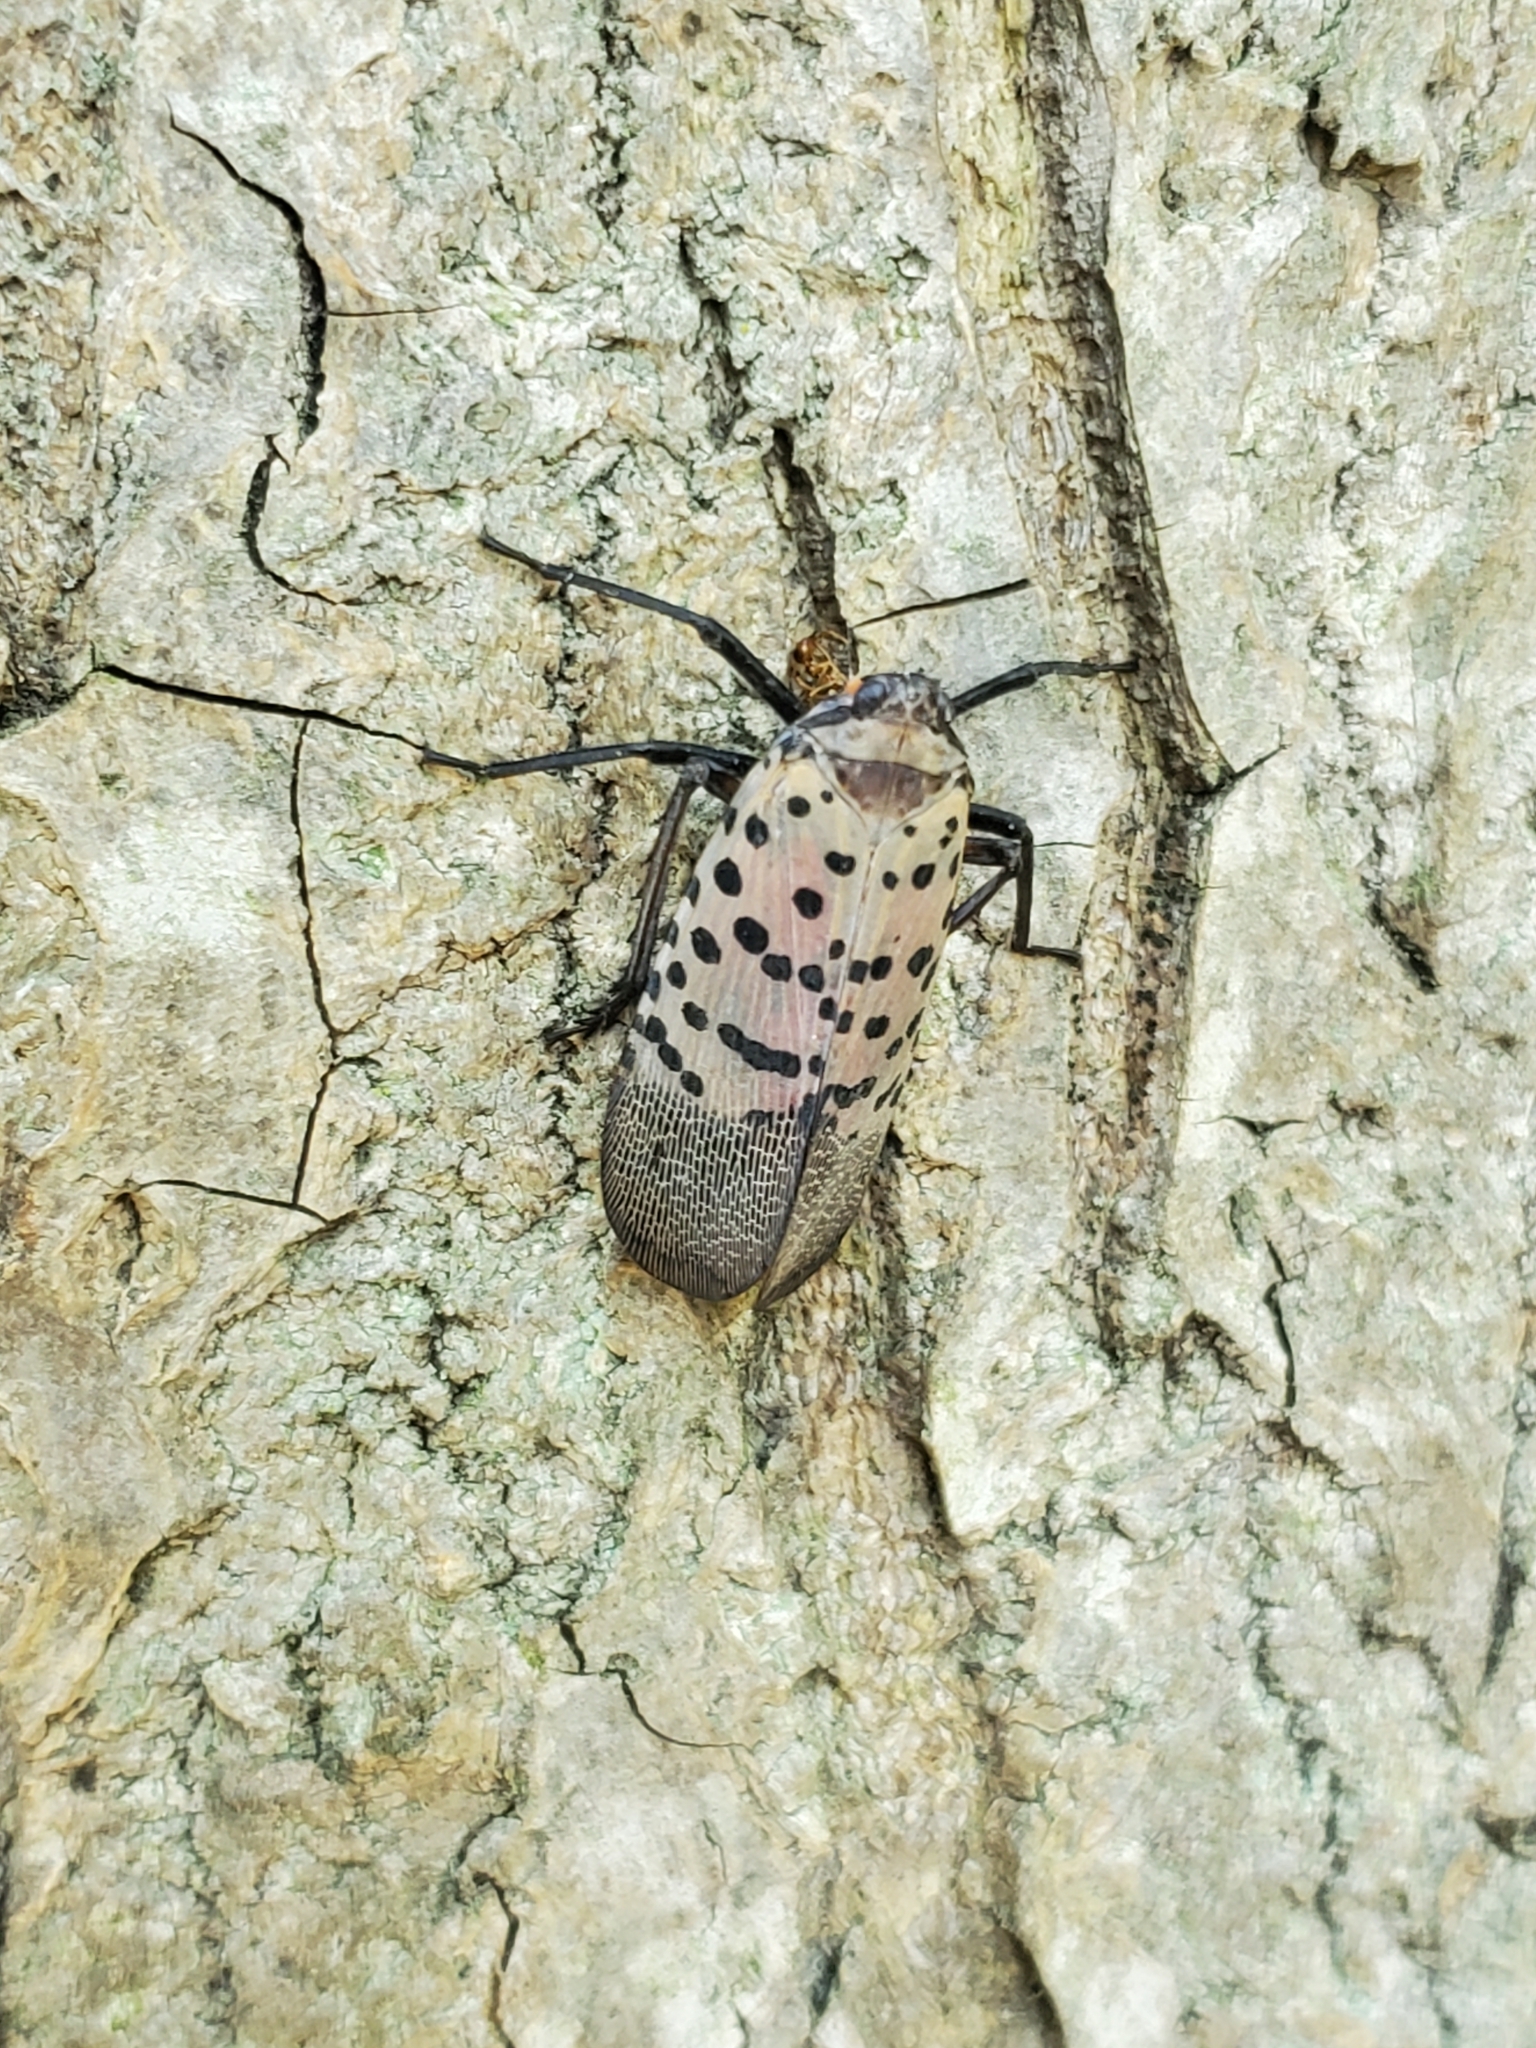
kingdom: Animalia
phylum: Arthropoda
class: Insecta
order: Hemiptera
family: Fulgoridae
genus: Lycorma
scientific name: Lycorma delicatula
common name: Spotted lanternfly
